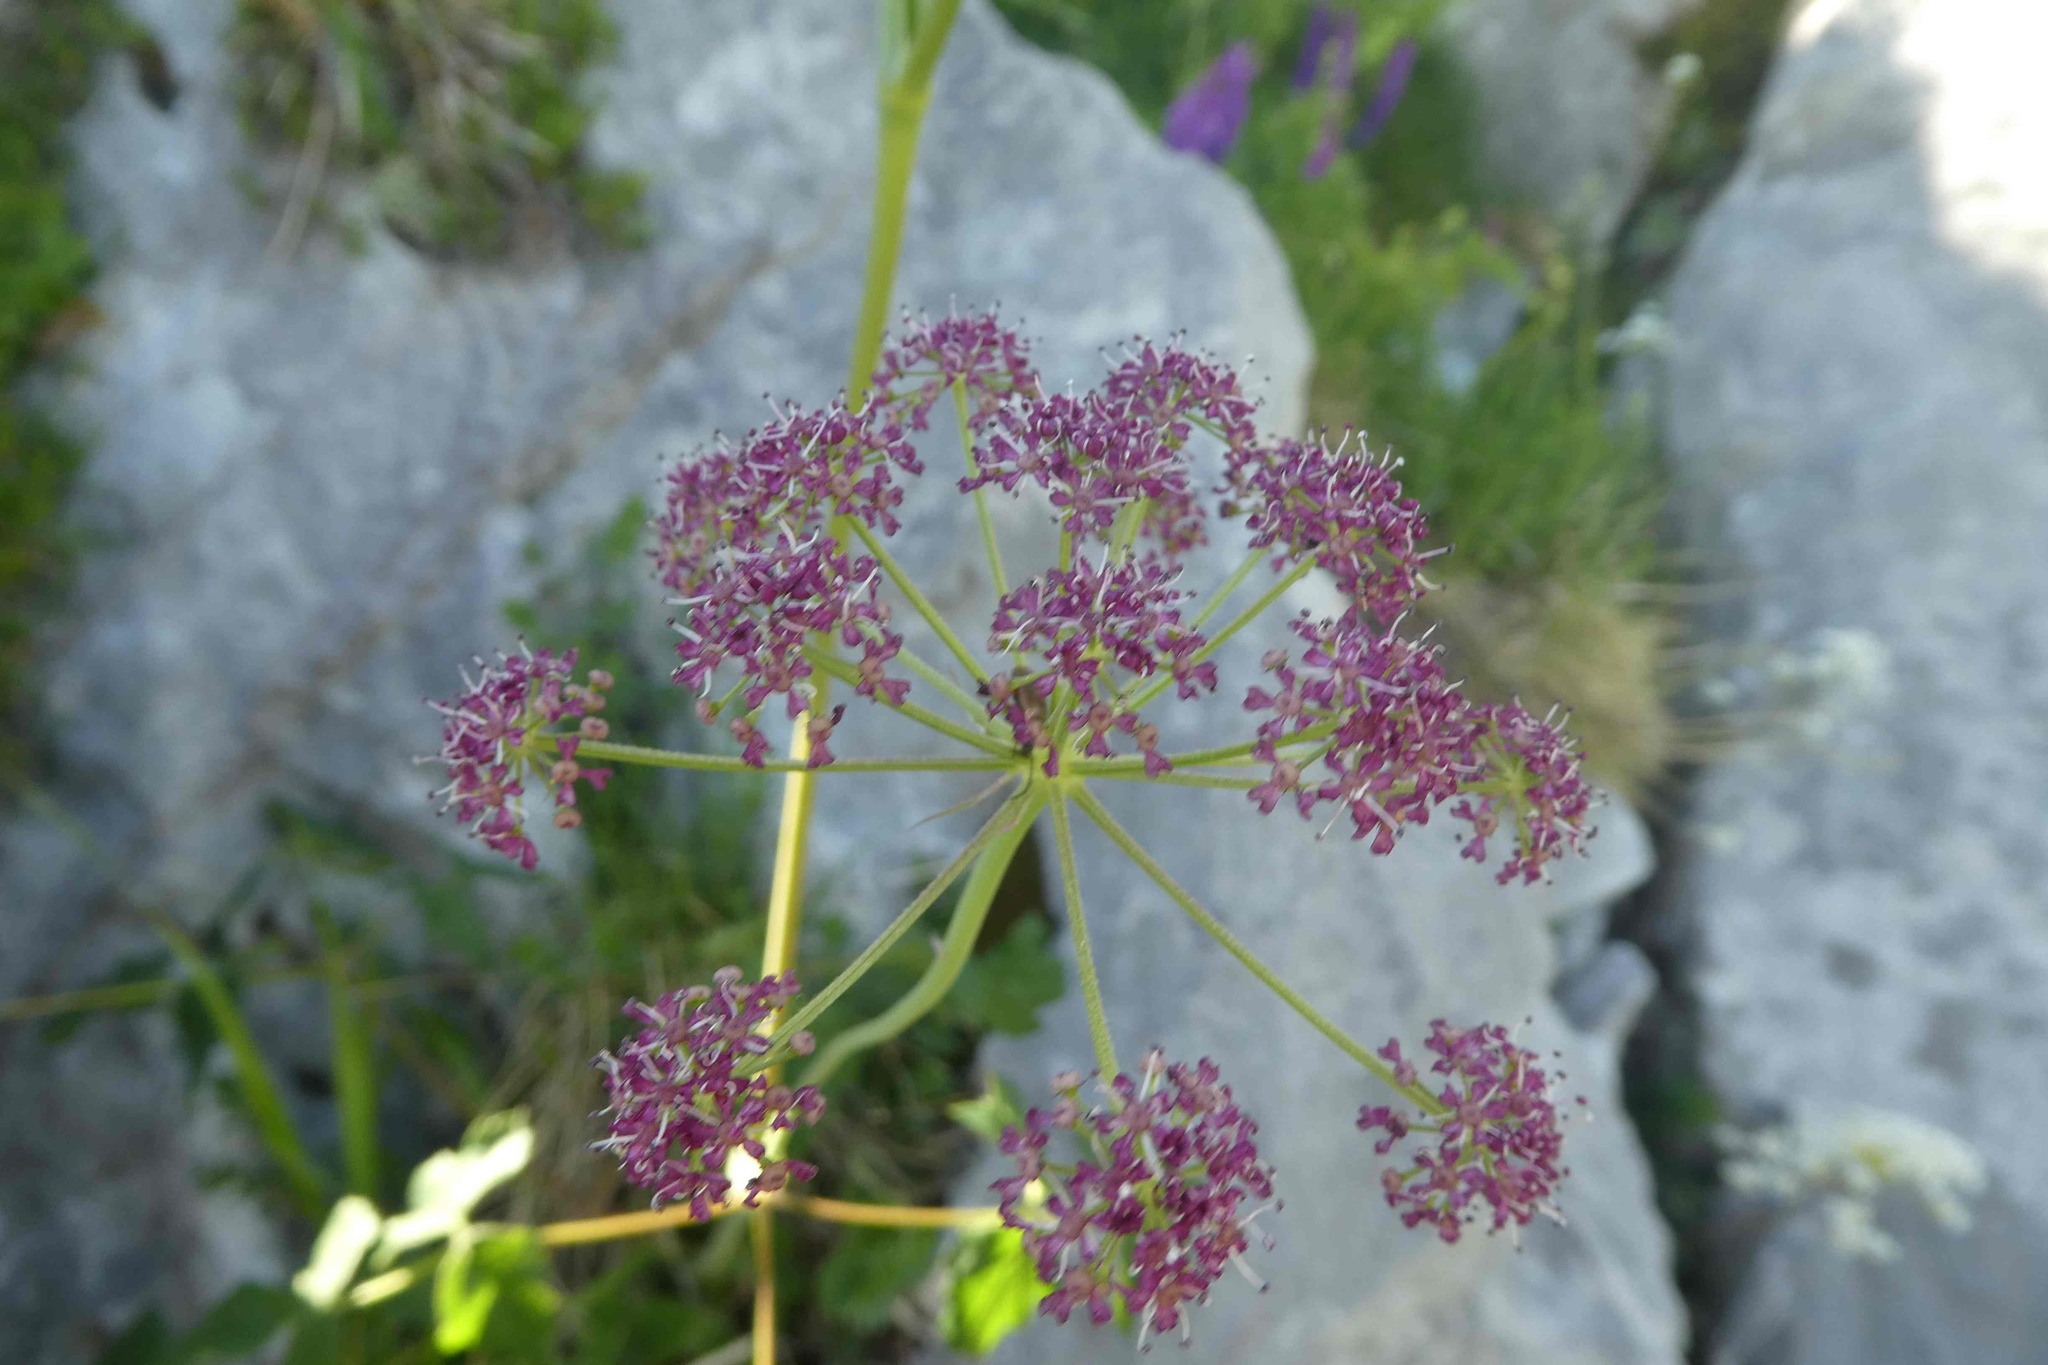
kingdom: Plantae
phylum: Tracheophyta
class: Magnoliopsida
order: Apiales
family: Apiaceae
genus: Thapsia
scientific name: Thapsia nestleri
